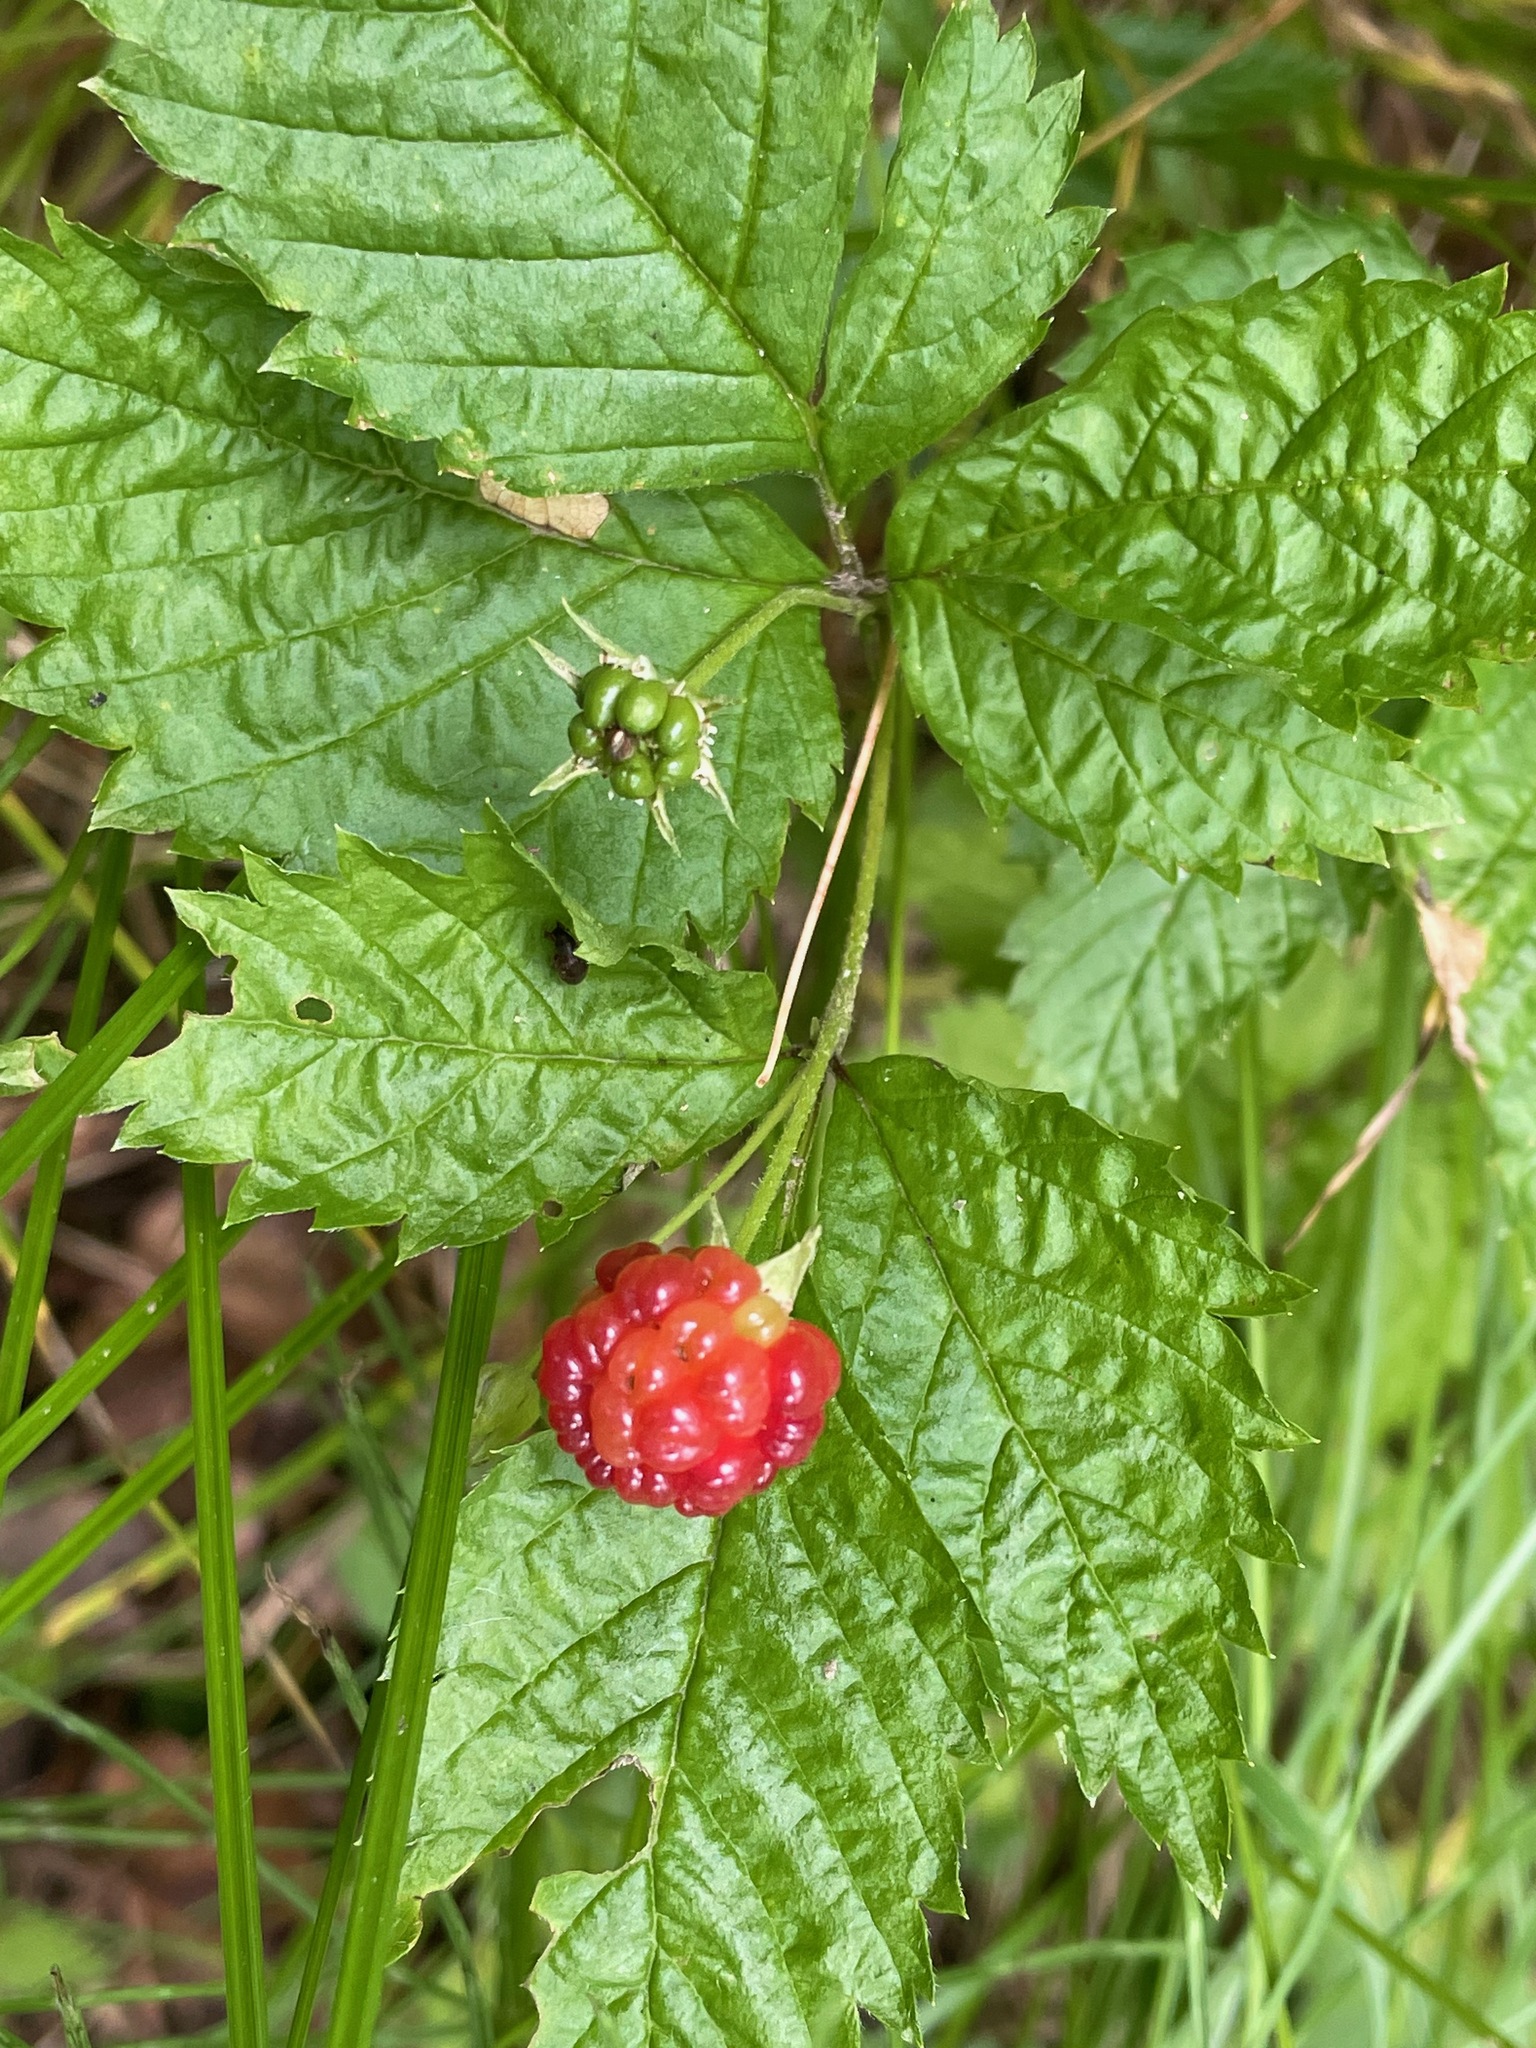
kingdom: Plantae
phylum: Tracheophyta
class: Magnoliopsida
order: Rosales
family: Rosaceae
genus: Rubus
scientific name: Rubus pubescens
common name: Dwarf raspberry
